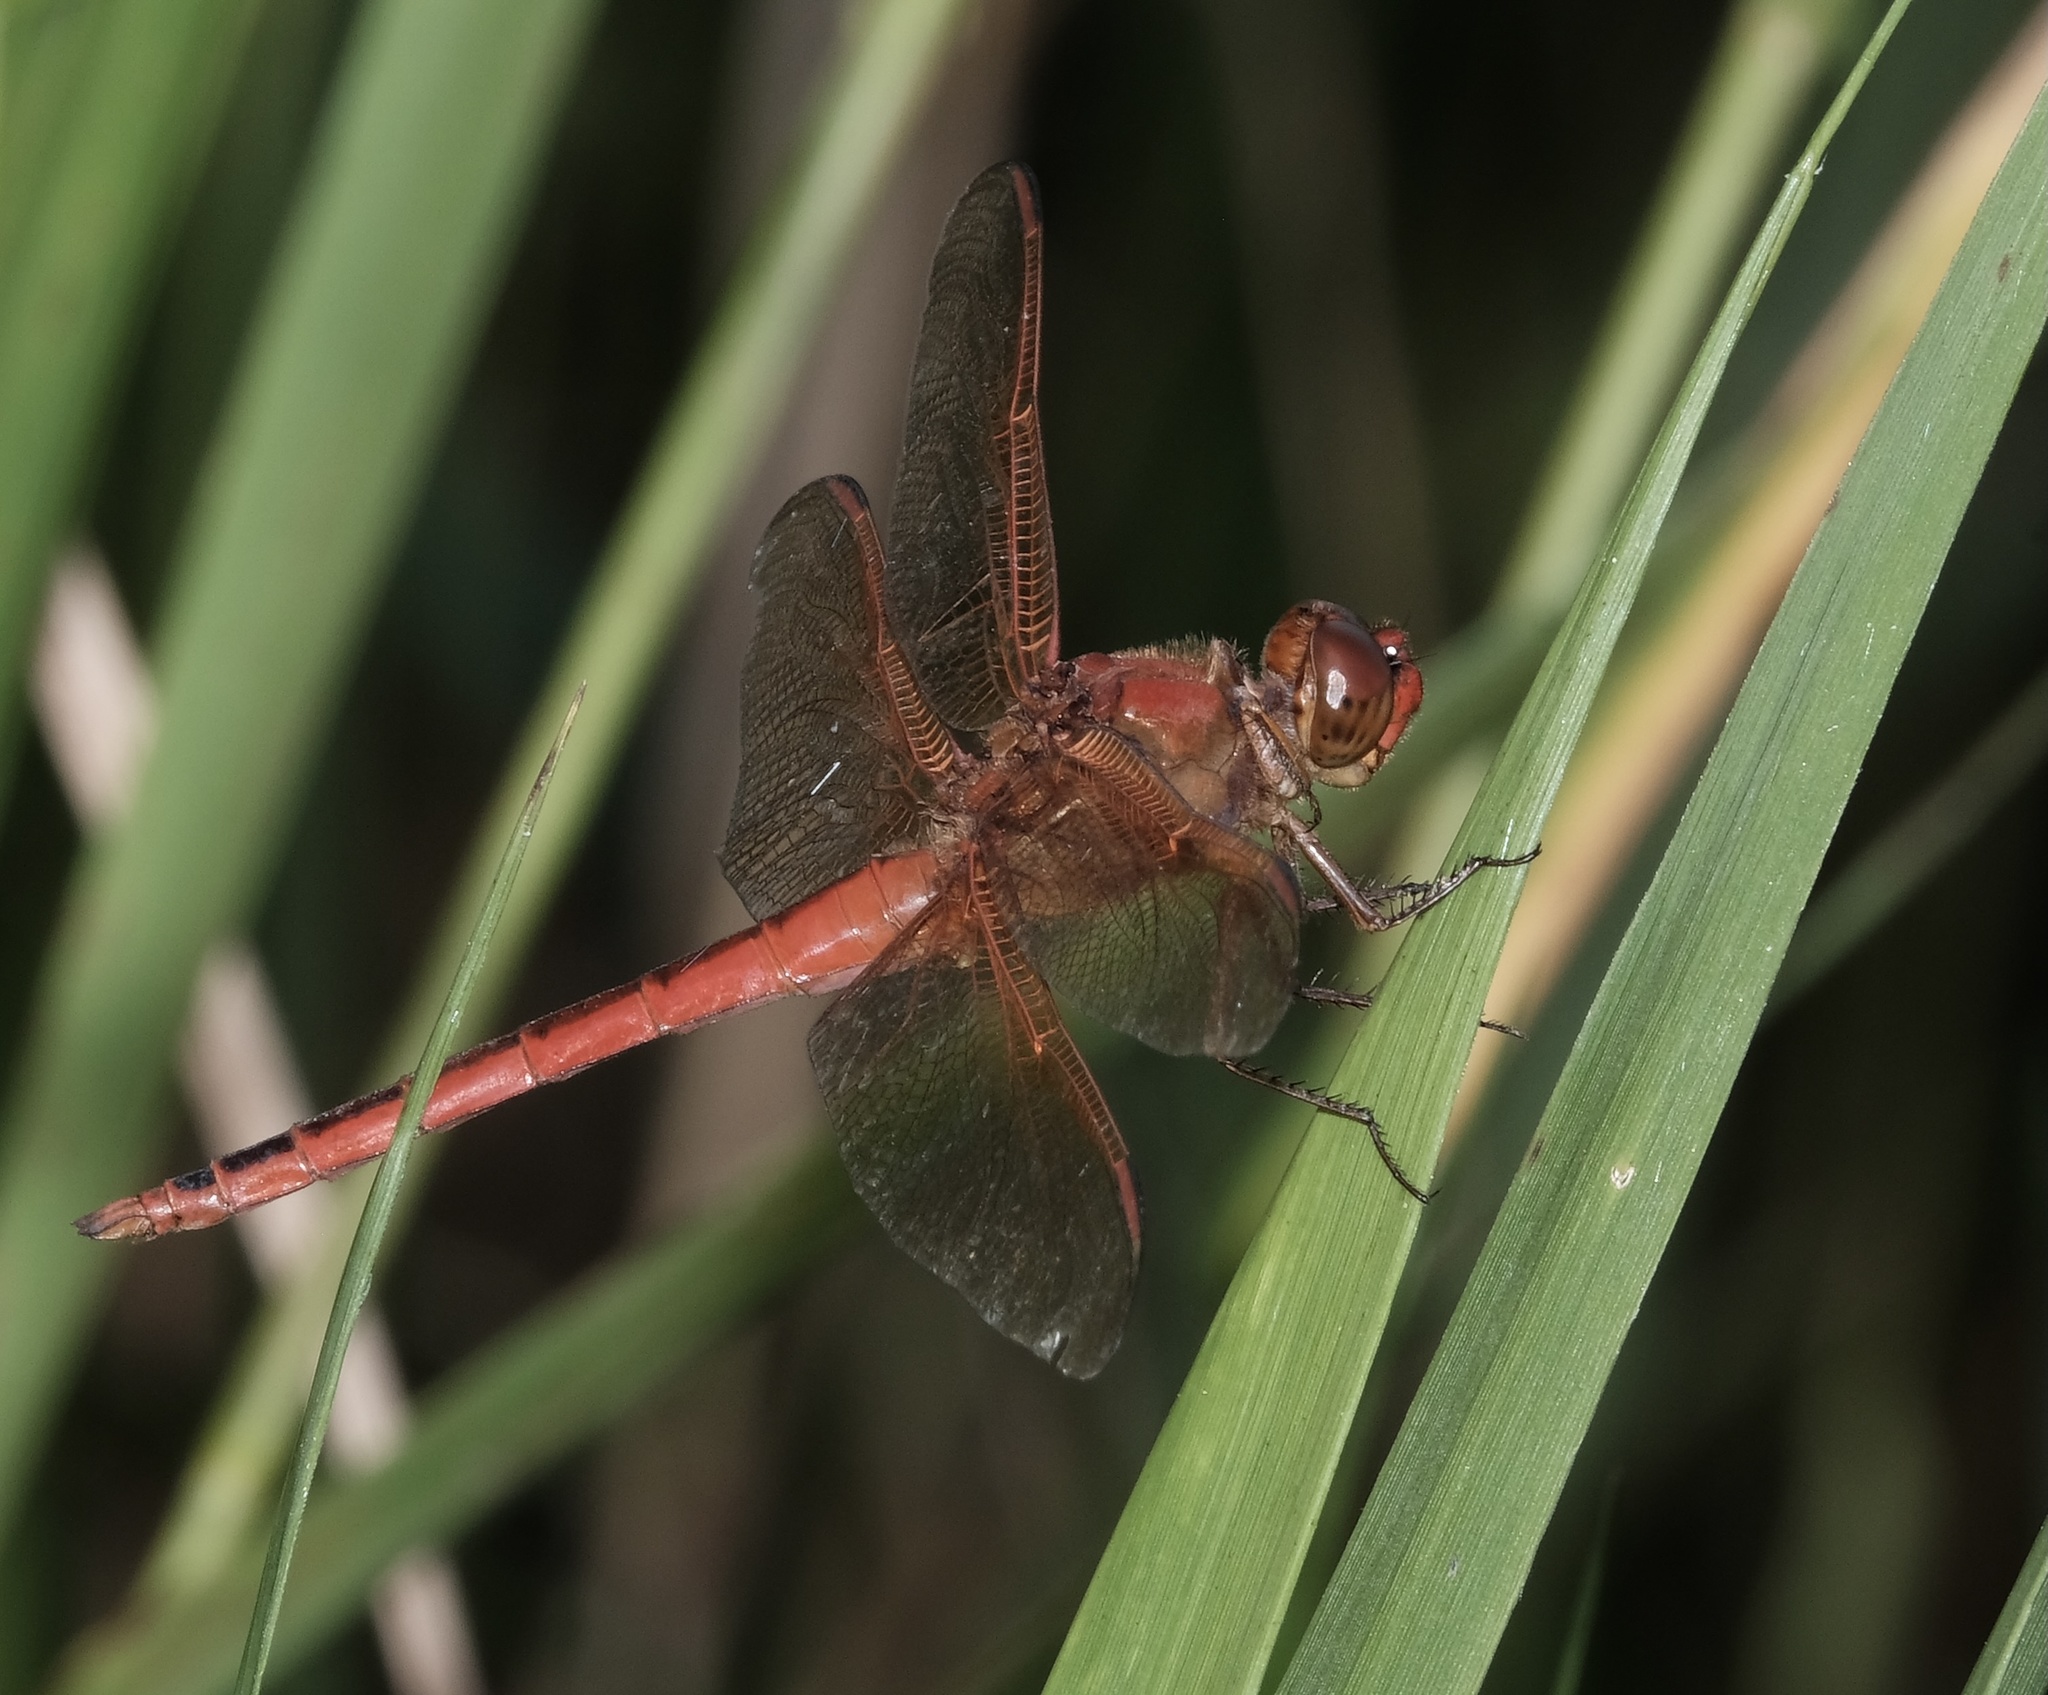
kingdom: Animalia
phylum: Arthropoda
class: Insecta
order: Odonata
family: Libellulidae
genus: Libellula
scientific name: Libellula needhami
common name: Needham's skimmer
